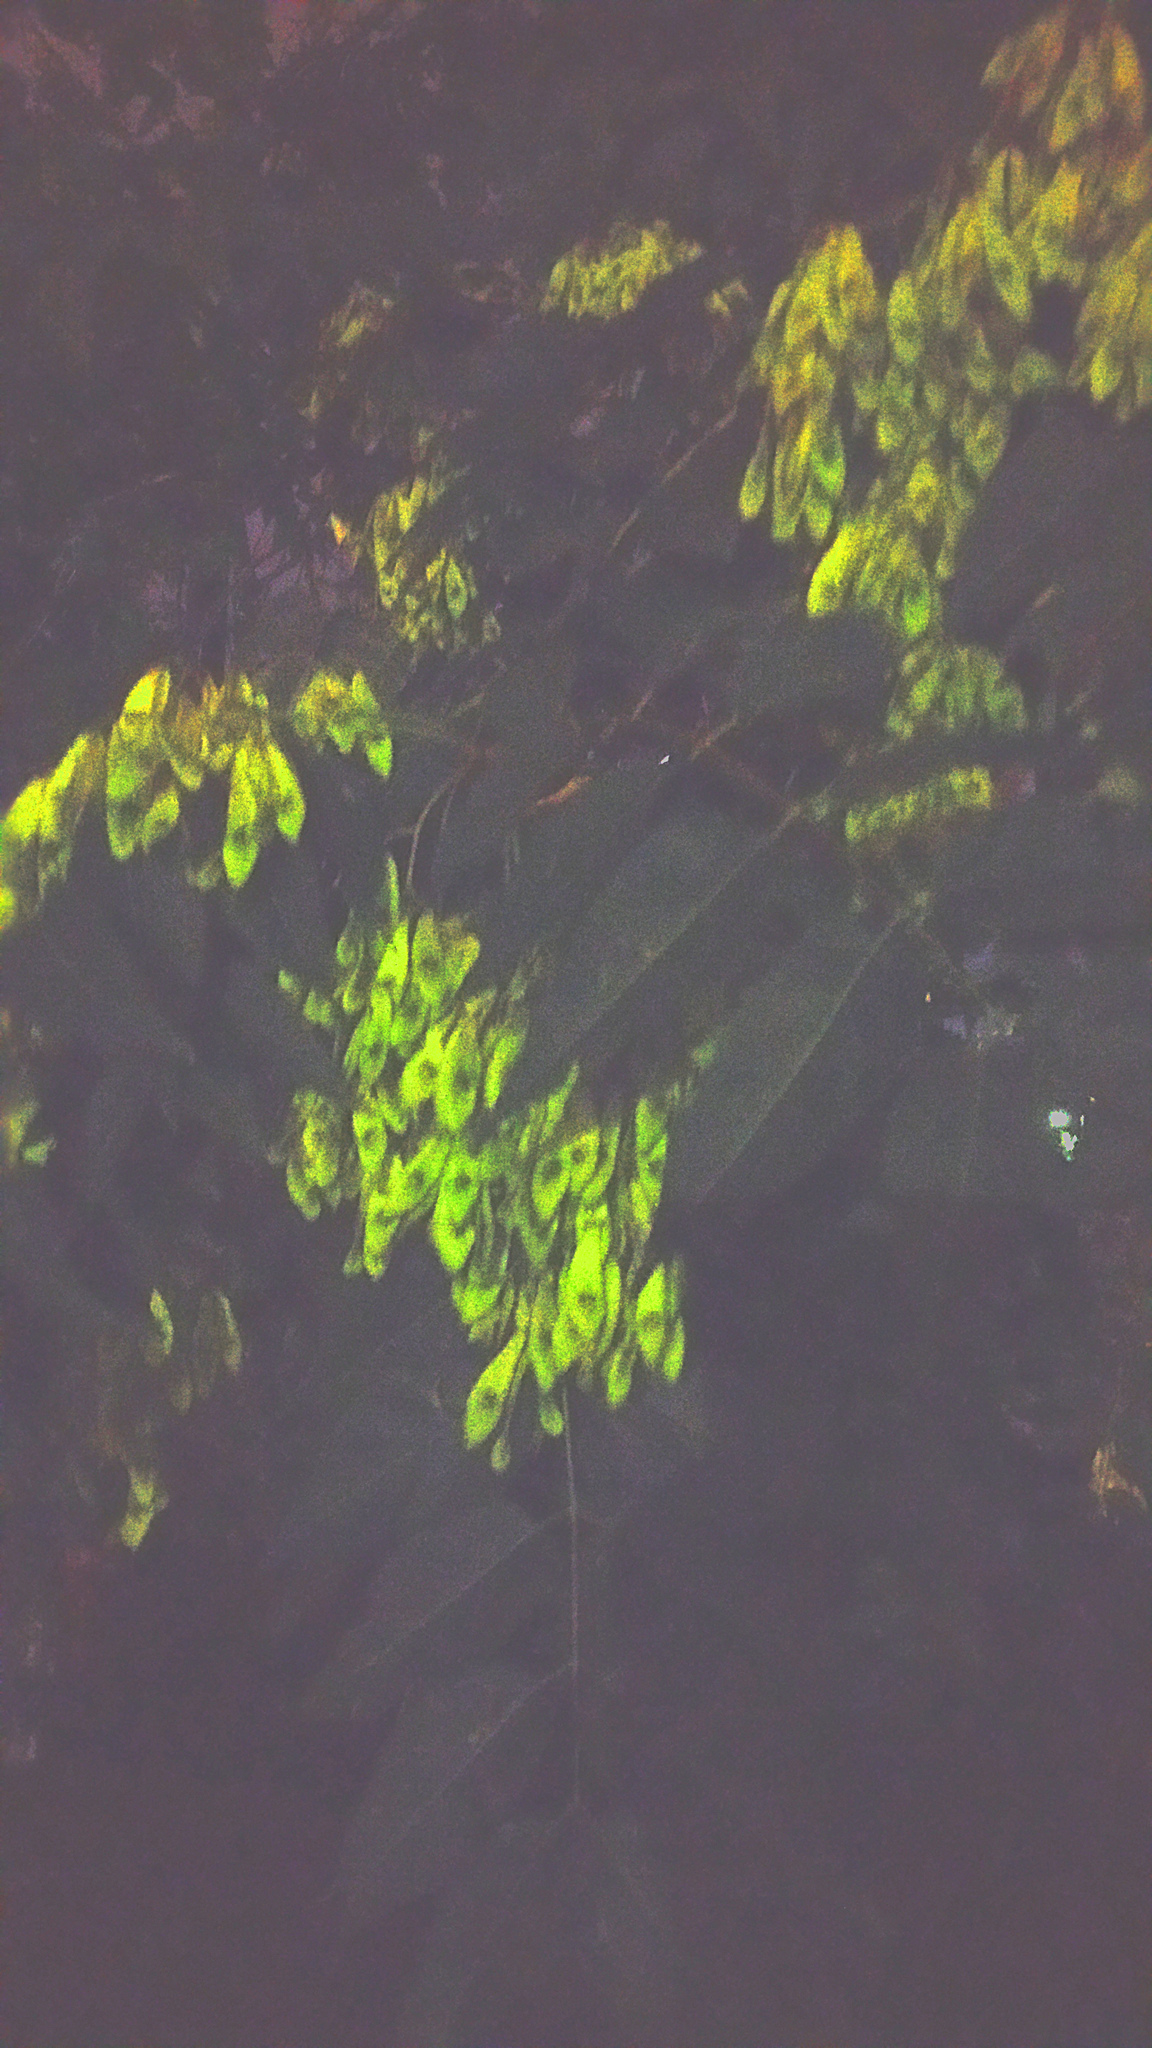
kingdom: Plantae
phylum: Tracheophyta
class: Magnoliopsida
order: Sapindales
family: Simaroubaceae
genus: Ailanthus
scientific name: Ailanthus altissima
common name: Tree-of-heaven
